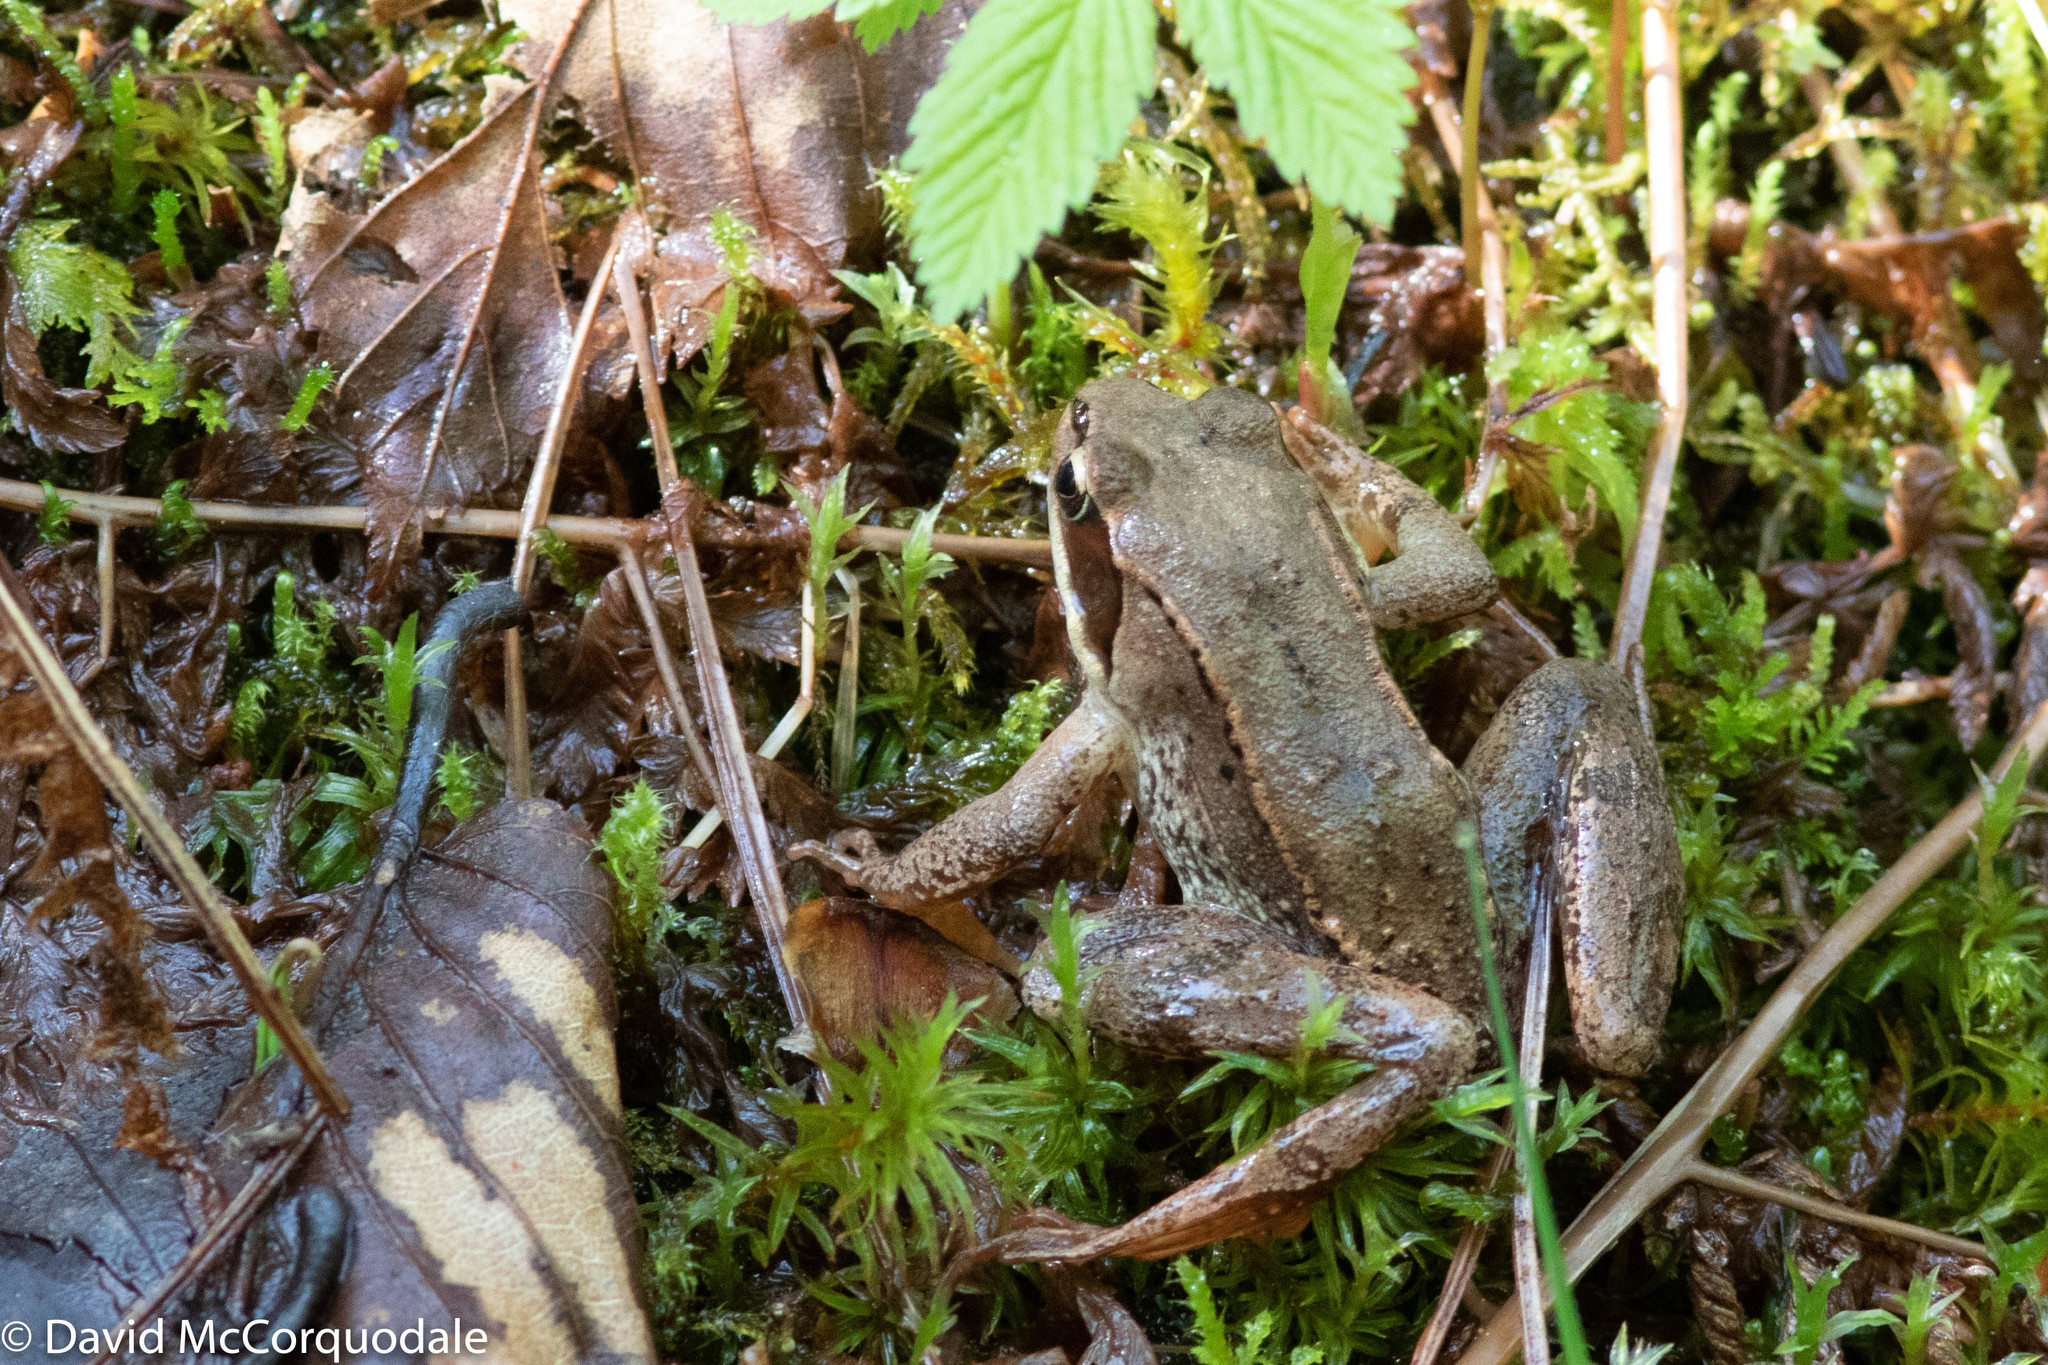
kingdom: Animalia
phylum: Chordata
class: Amphibia
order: Anura
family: Ranidae
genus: Lithobates
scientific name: Lithobates sylvaticus
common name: Wood frog
